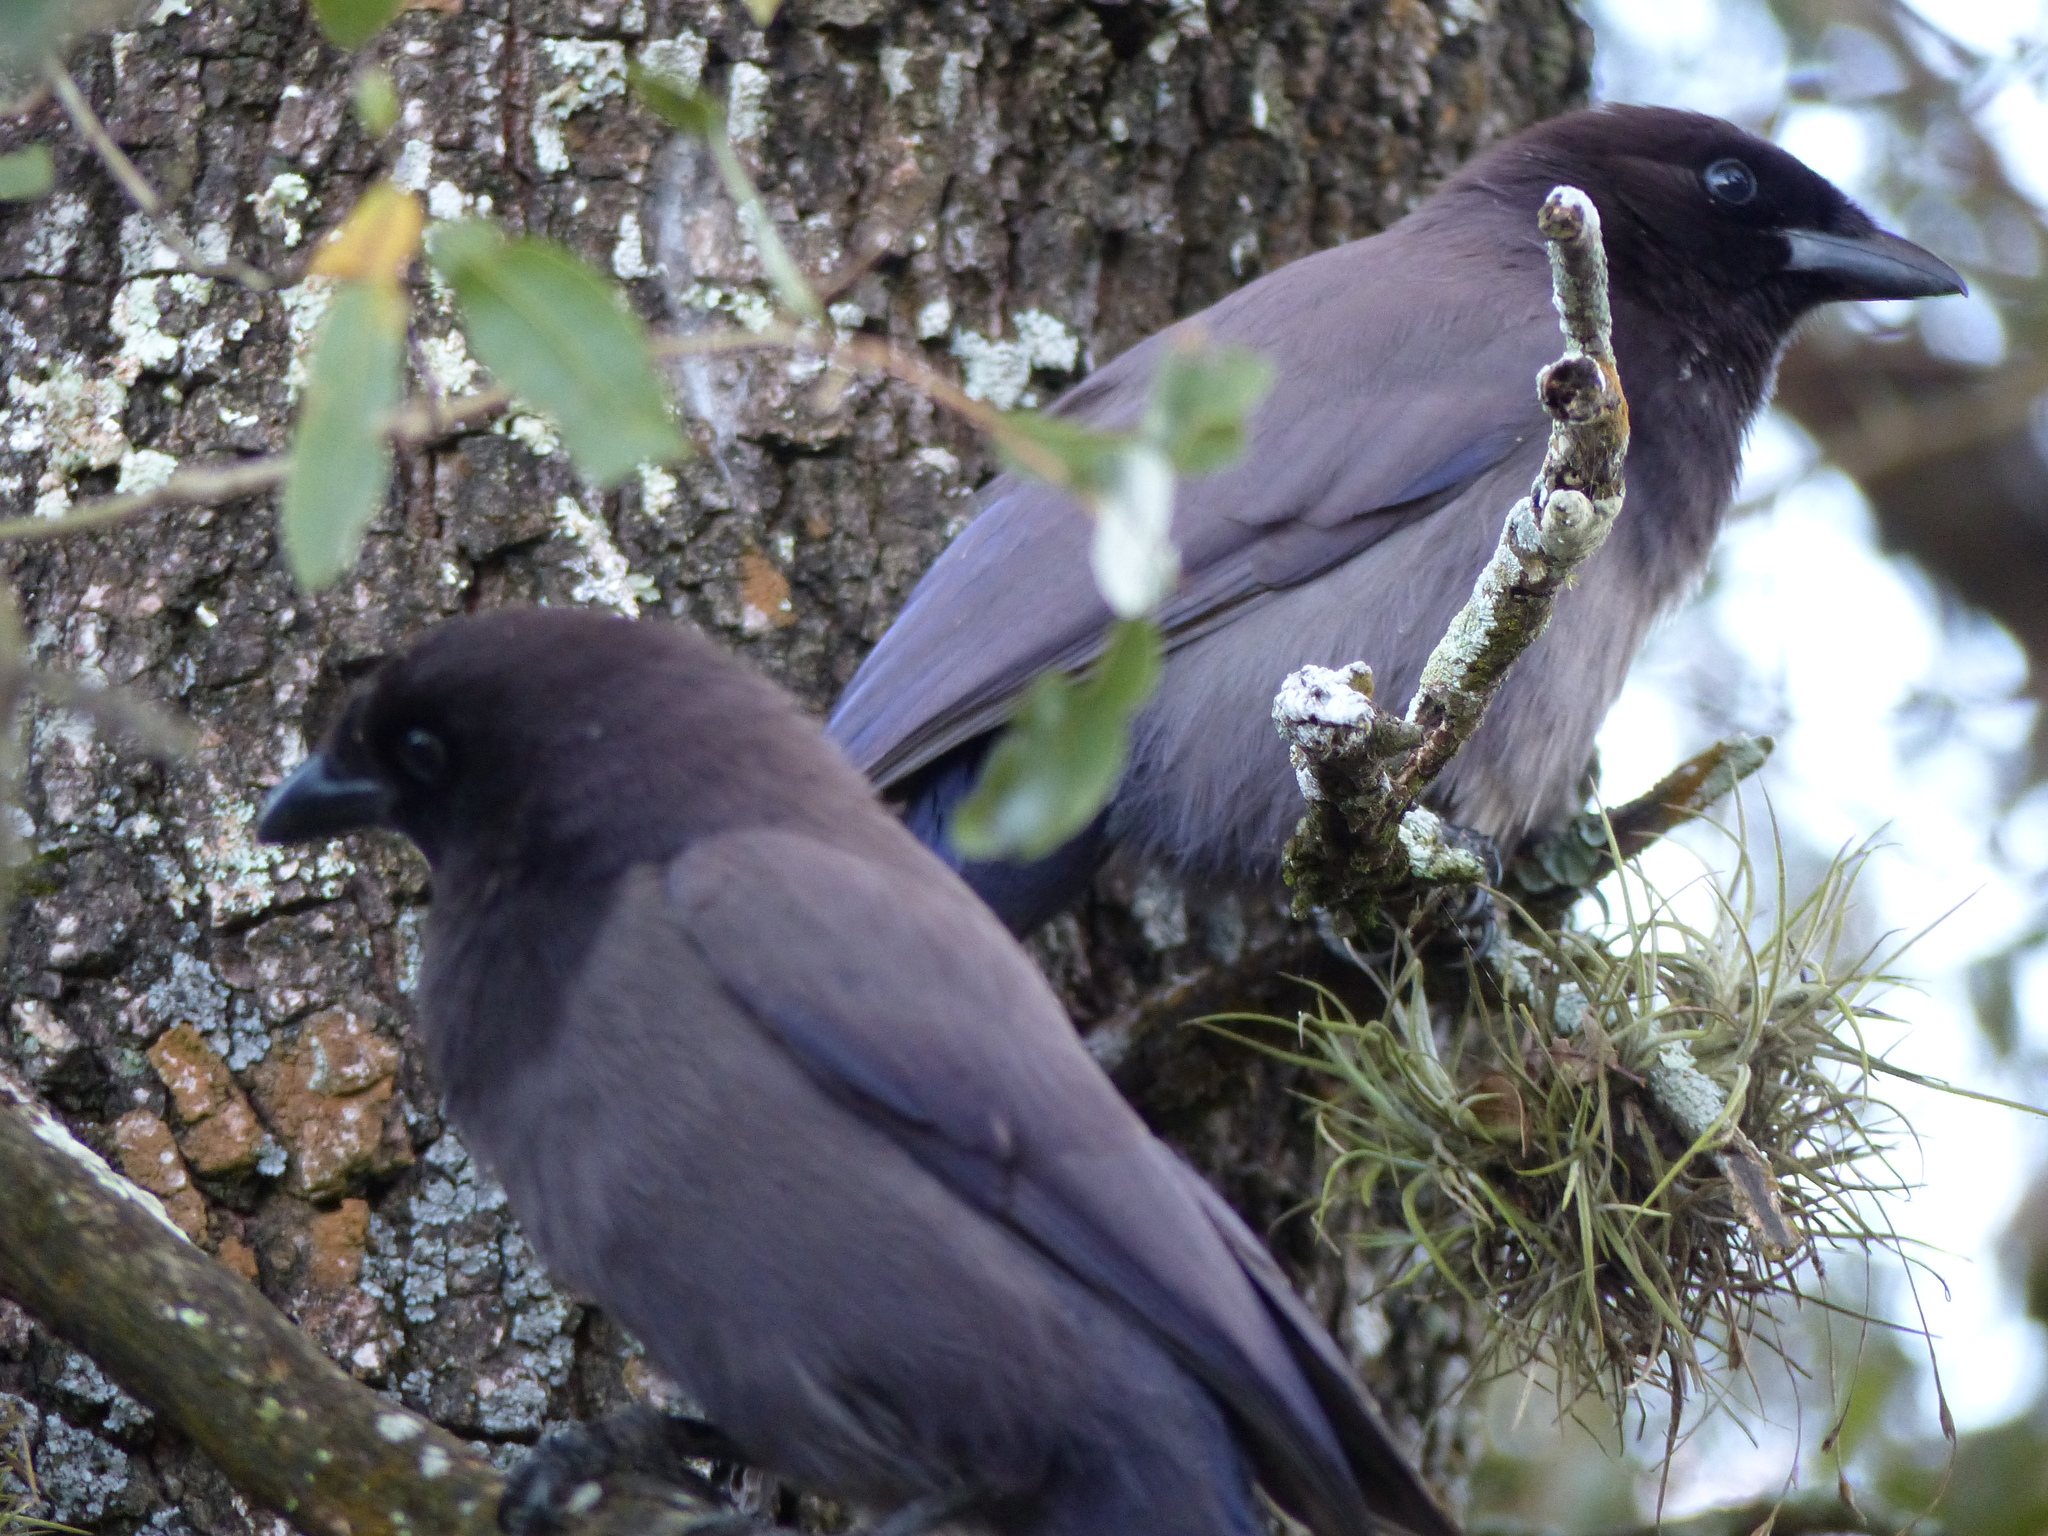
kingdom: Animalia
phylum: Chordata
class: Aves
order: Passeriformes
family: Corvidae
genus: Cyanocorax
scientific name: Cyanocorax cyanomelas
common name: Purplish jay
